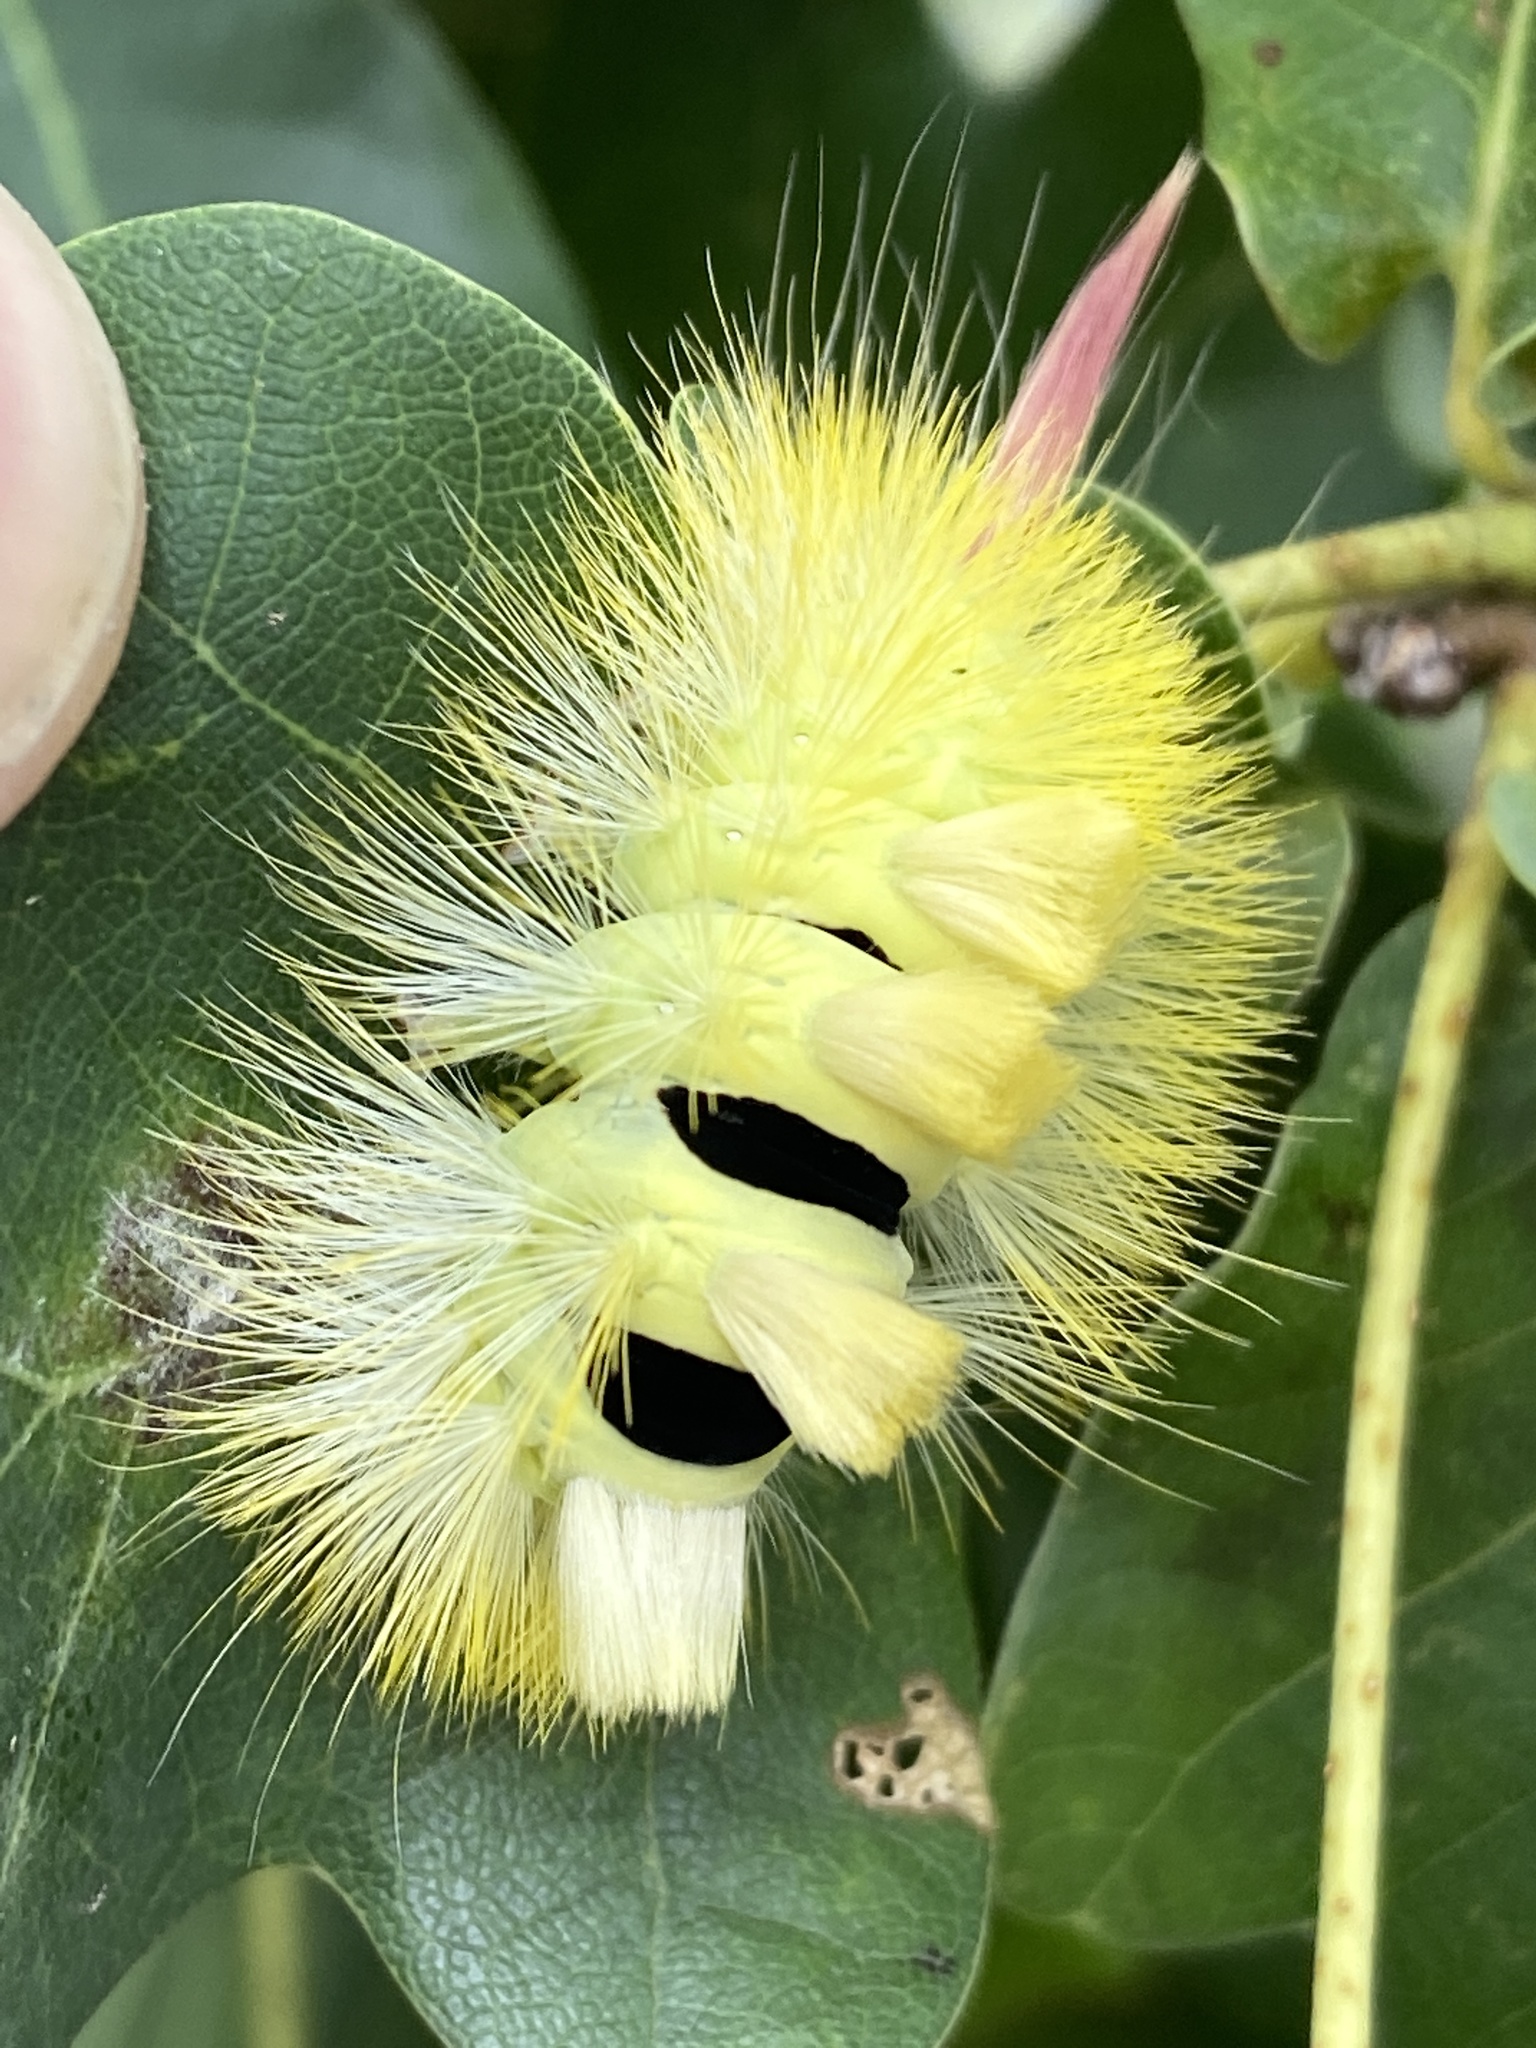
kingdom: Animalia
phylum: Arthropoda
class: Insecta
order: Lepidoptera
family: Erebidae
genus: Calliteara
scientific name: Calliteara pudibunda
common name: Pale tussock
